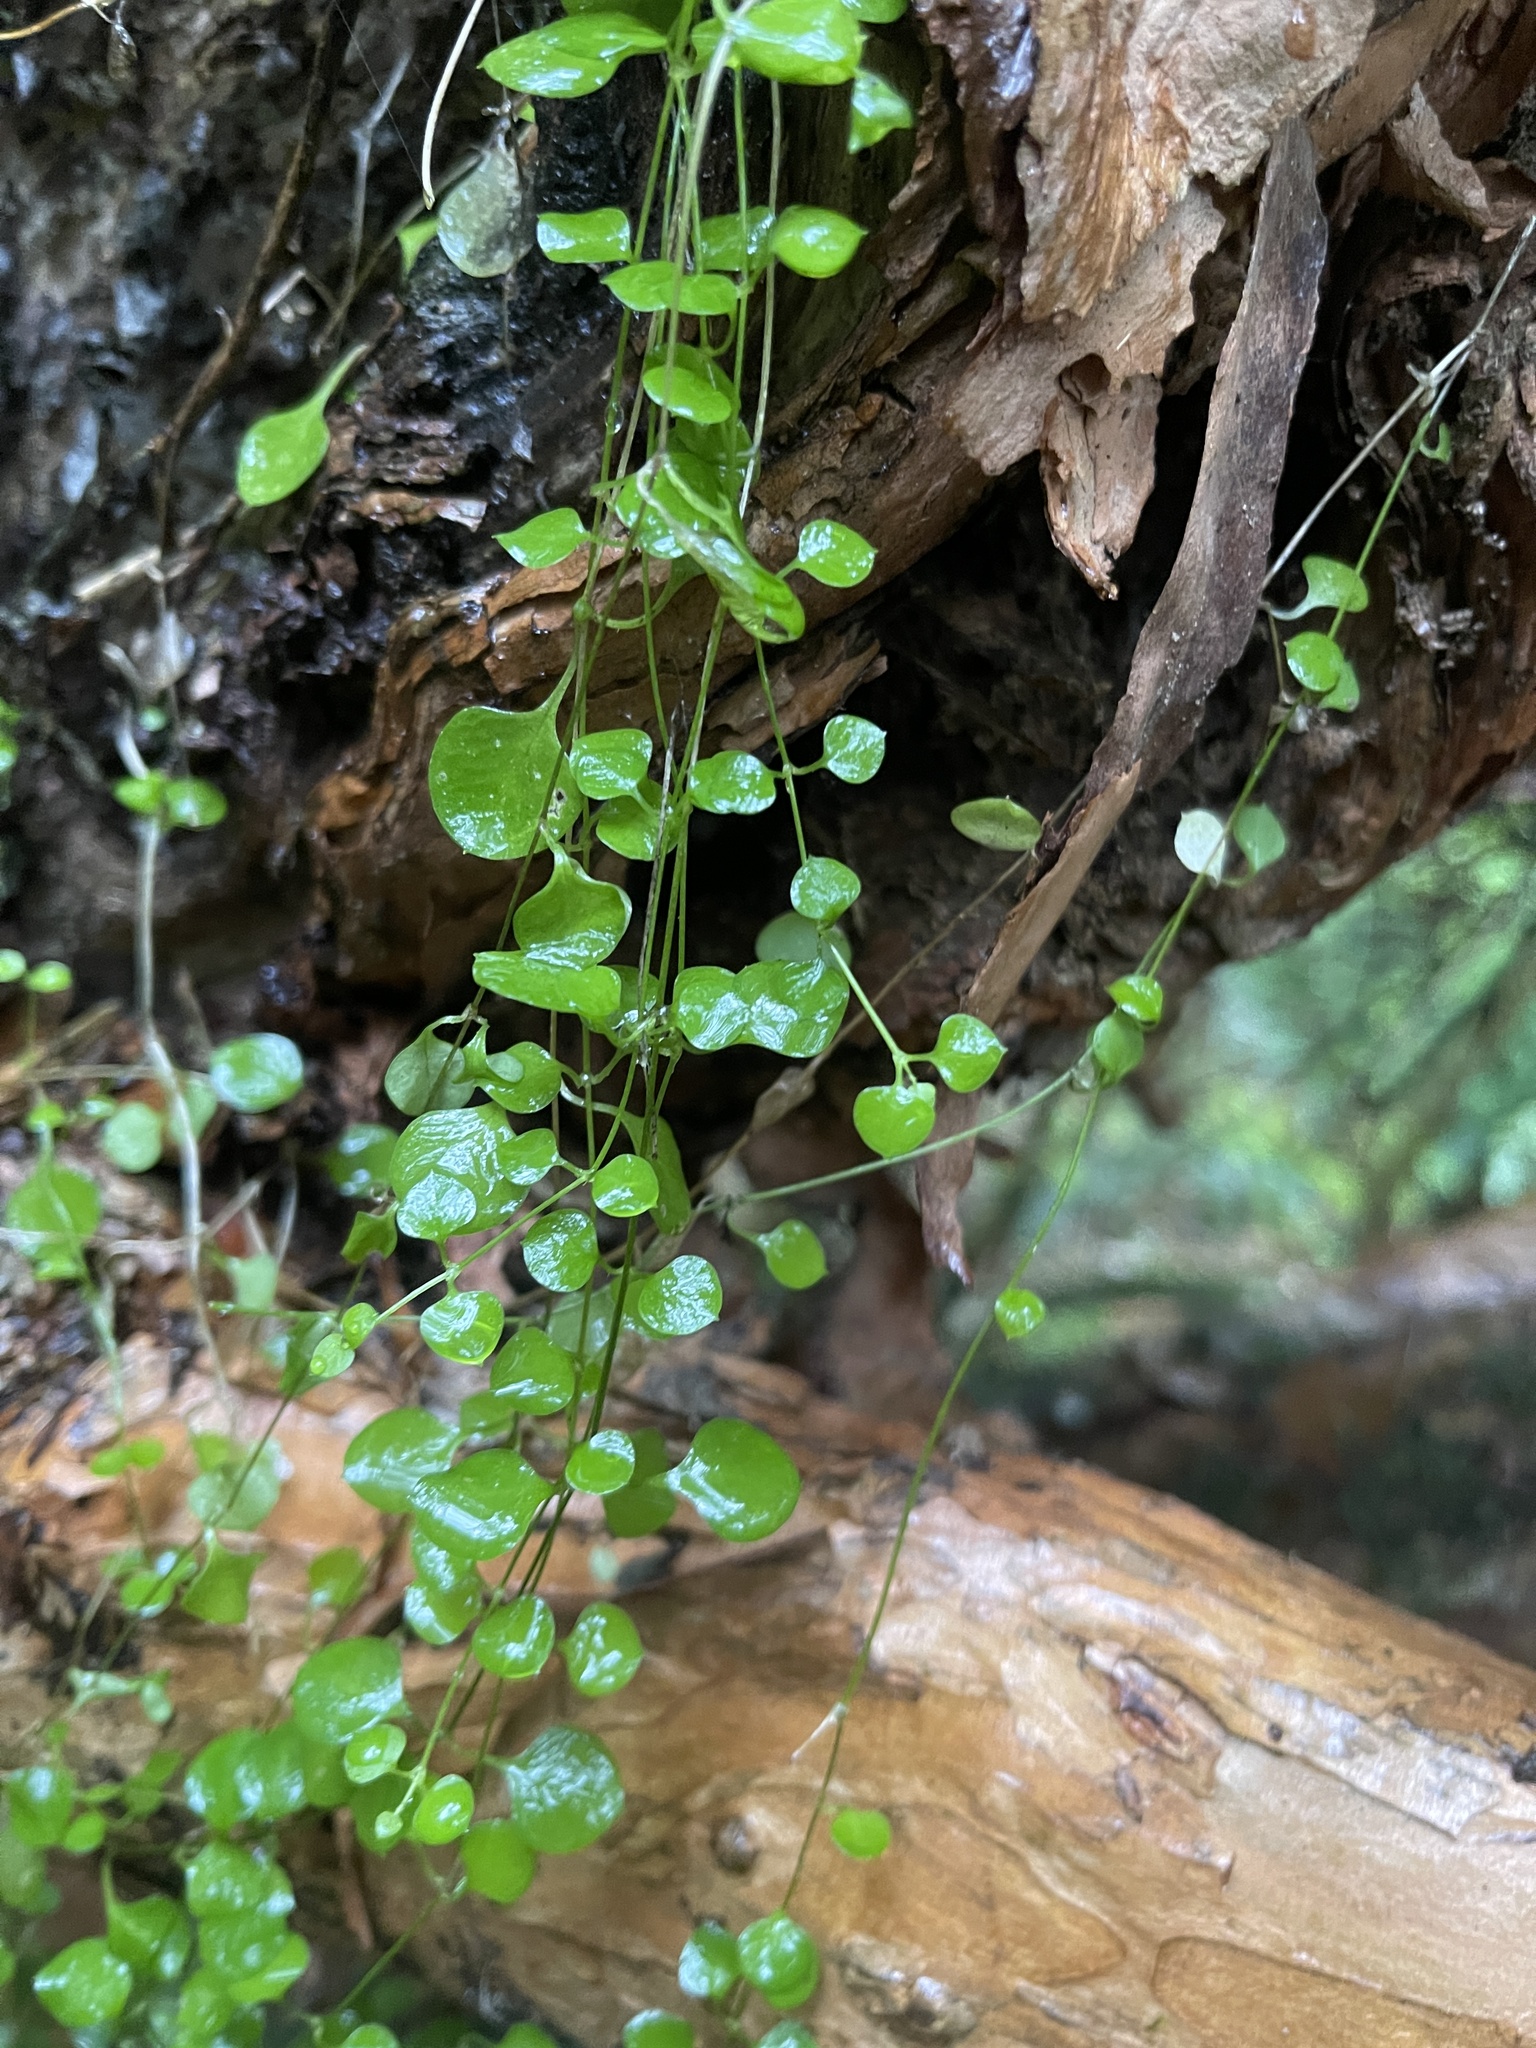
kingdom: Plantae
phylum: Tracheophyta
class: Magnoliopsida
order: Caryophyllales
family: Caryophyllaceae
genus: Stellaria
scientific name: Stellaria parviflora
